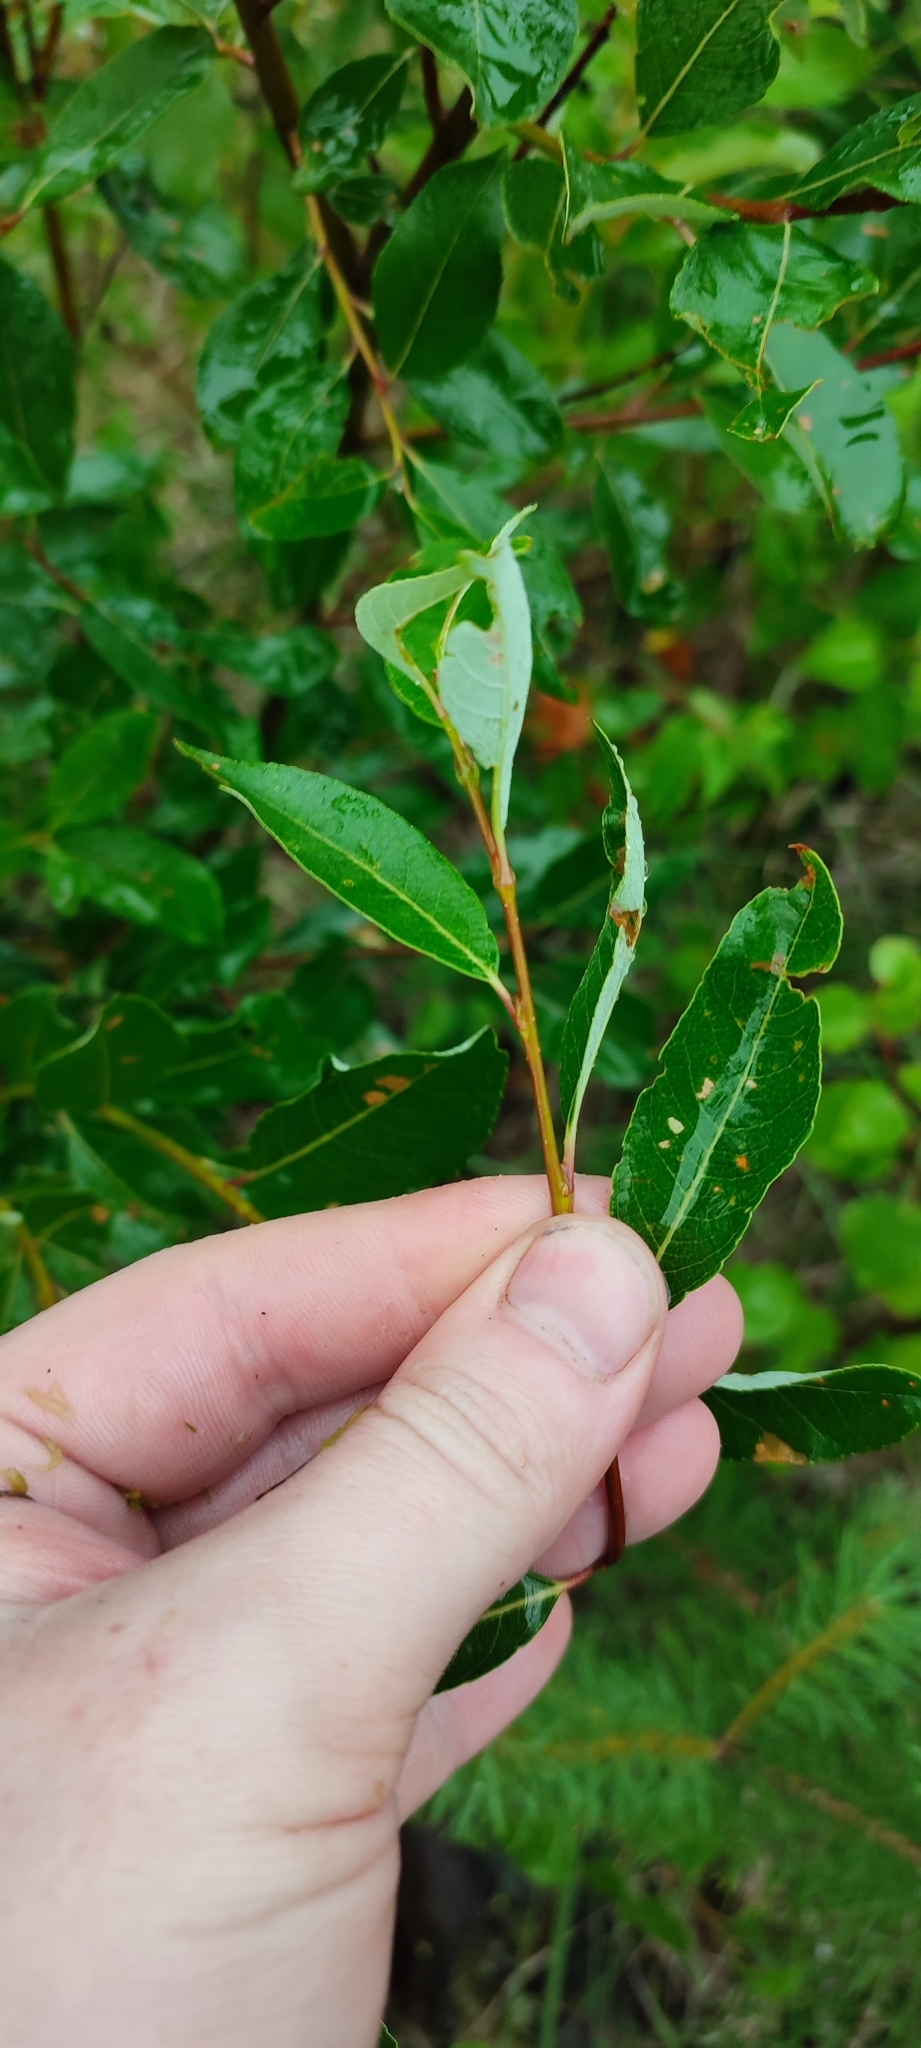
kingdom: Plantae
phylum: Tracheophyta
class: Magnoliopsida
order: Malpighiales
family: Salicaceae
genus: Salix
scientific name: Salix phylicifolia
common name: Tea-leaved willow
